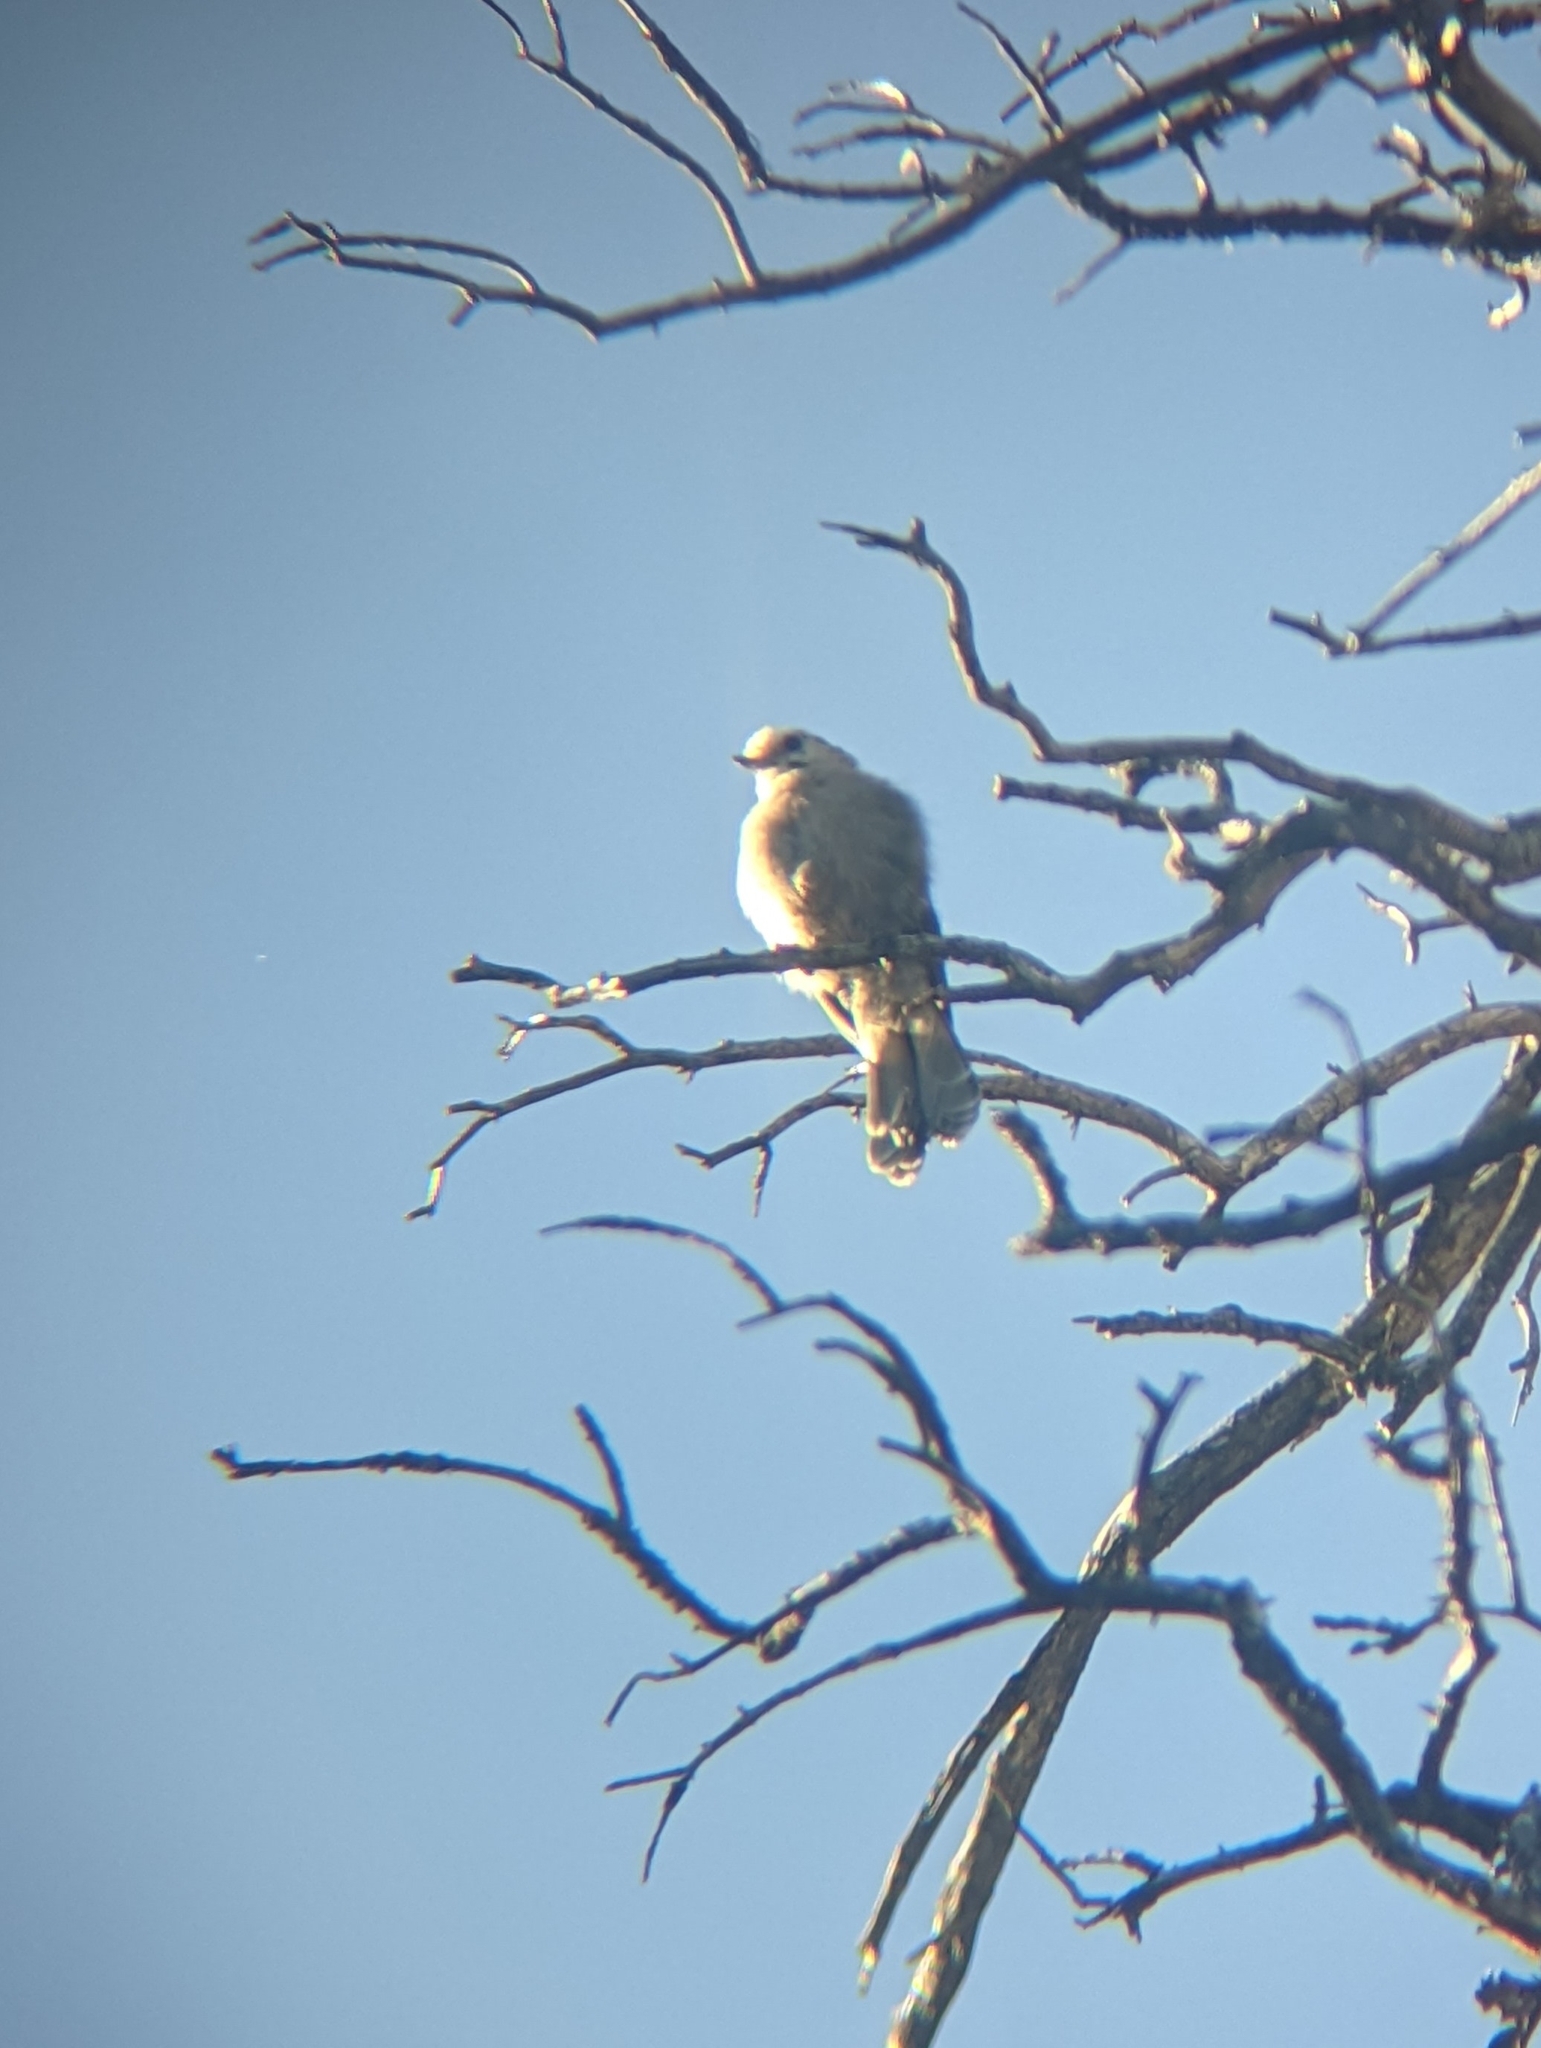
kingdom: Animalia
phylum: Chordata
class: Aves
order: Passeriformes
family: Corvidae
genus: Perisoreus
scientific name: Perisoreus canadensis
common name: Gray jay
